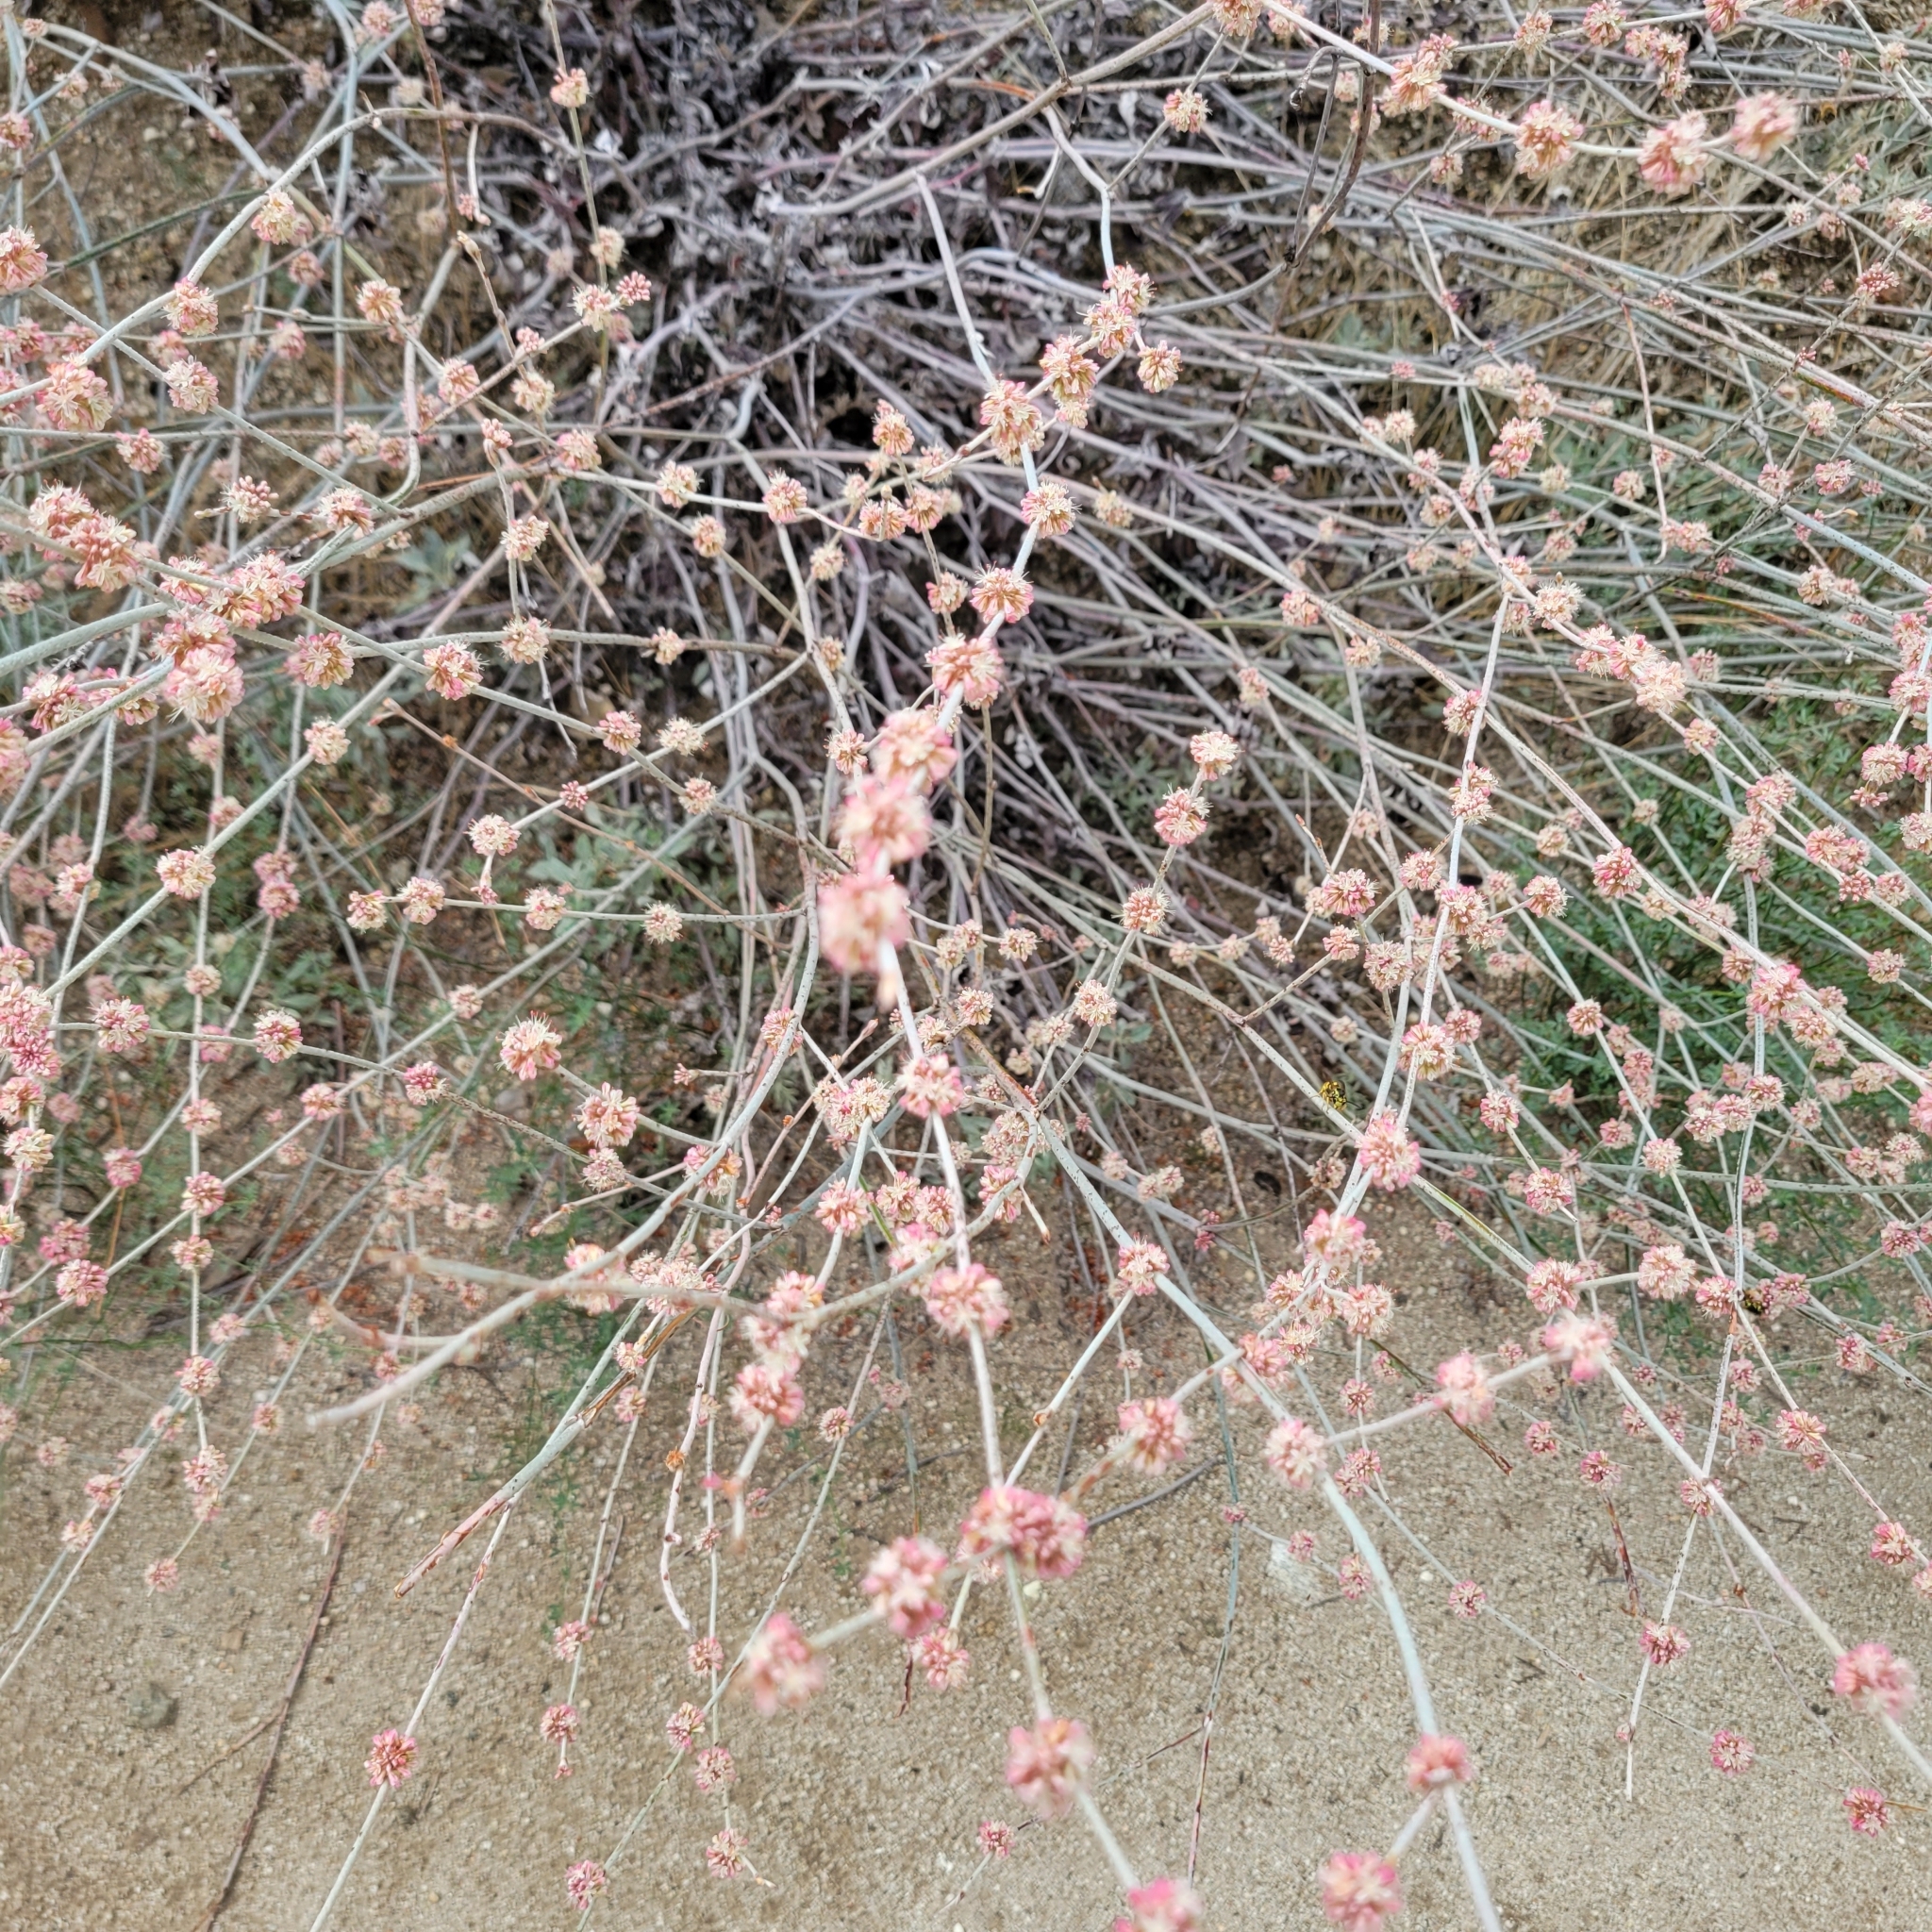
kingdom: Plantae
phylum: Tracheophyta
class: Magnoliopsida
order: Caryophyllales
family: Polygonaceae
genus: Eriogonum
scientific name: Eriogonum elongatum
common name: Long-stem wild buckwheat
